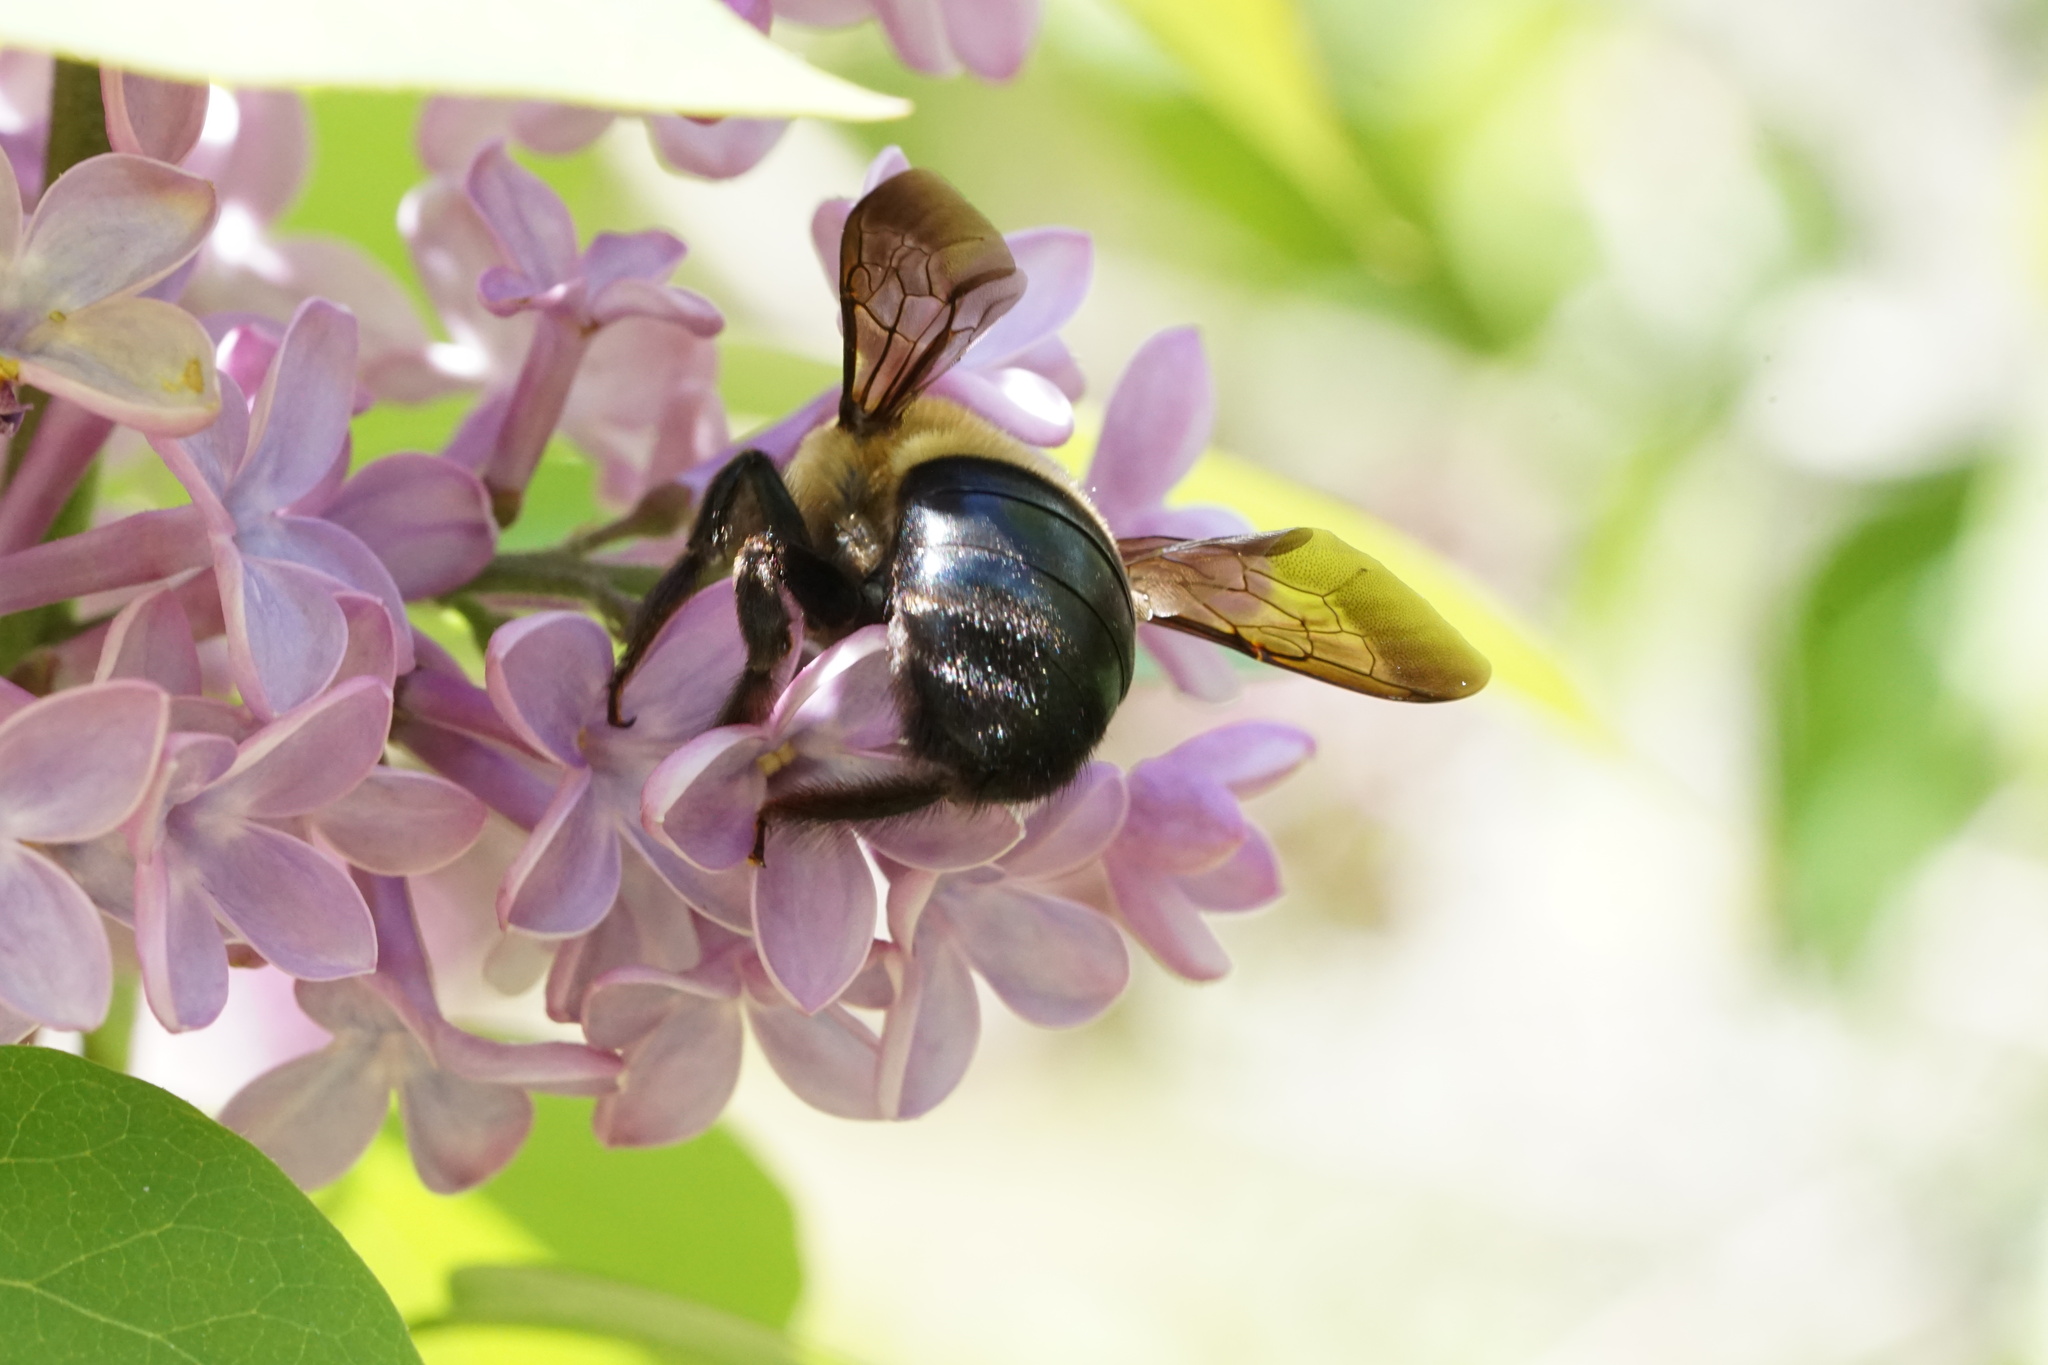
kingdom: Animalia
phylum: Arthropoda
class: Insecta
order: Hymenoptera
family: Apidae
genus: Xylocopa
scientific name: Xylocopa virginica
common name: Carpenter bee
